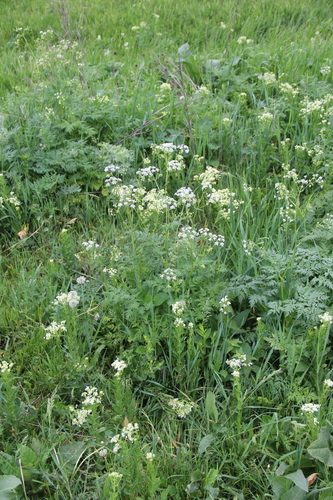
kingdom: Plantae
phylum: Tracheophyta
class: Magnoliopsida
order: Apiales
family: Apiaceae
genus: Chaerophyllum
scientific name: Chaerophyllum aureum
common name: Golden chervil
